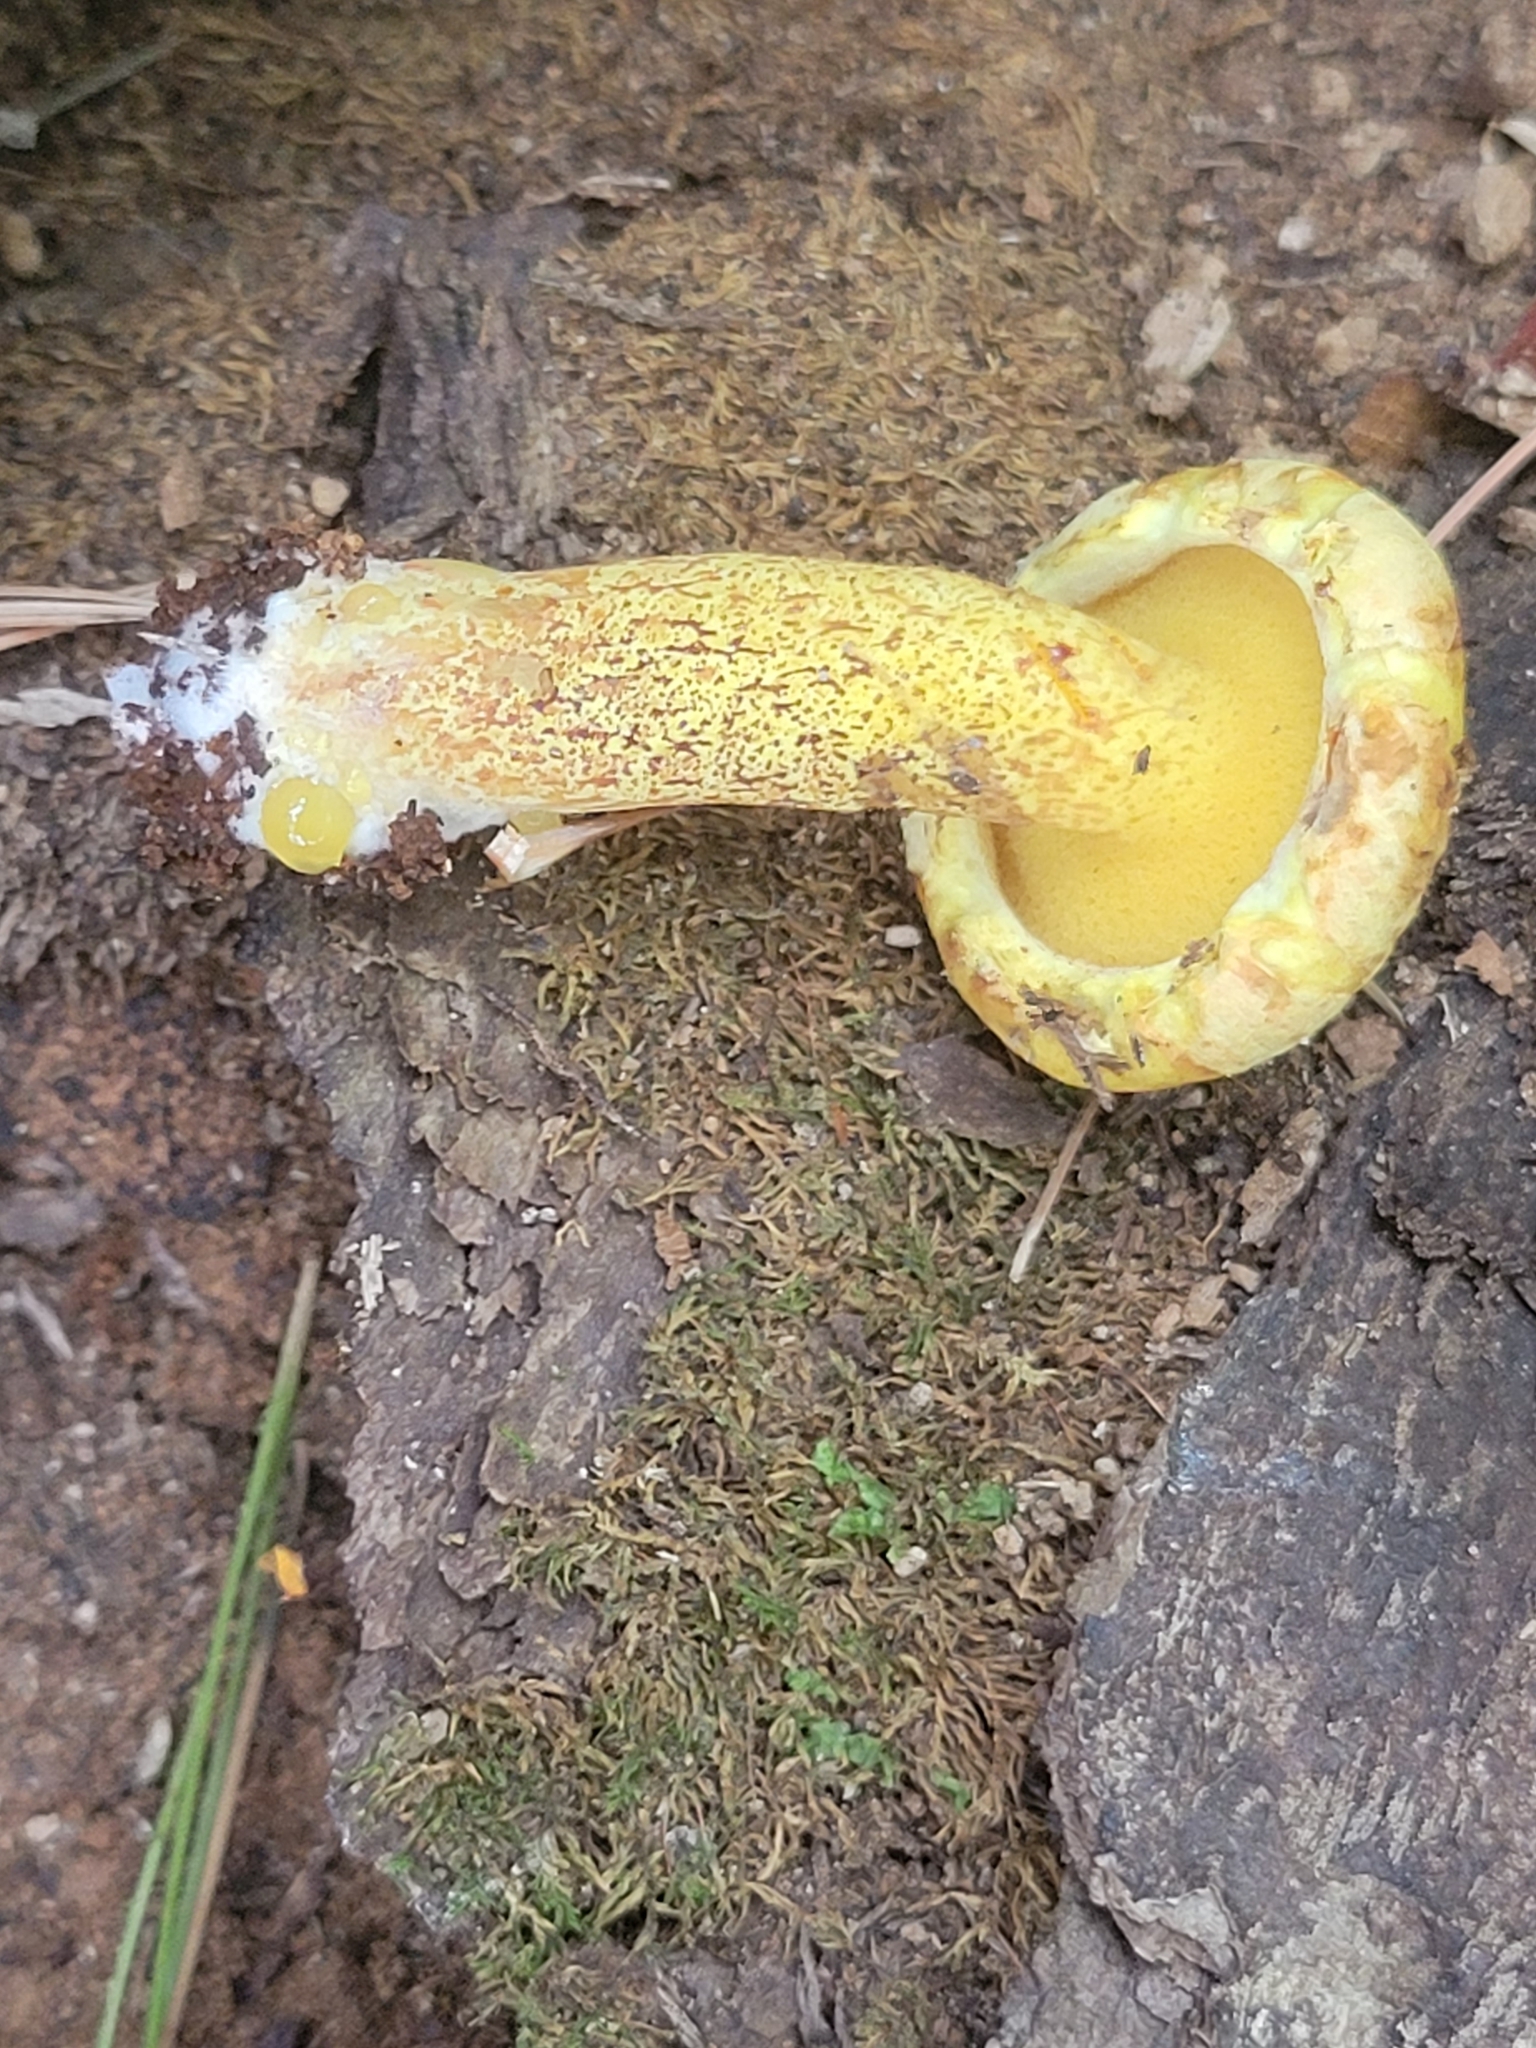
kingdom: Fungi
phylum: Basidiomycota
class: Agaricomycetes
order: Boletales
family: Suillaceae
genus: Suillus
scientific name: Suillus americanus
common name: Chicken fat mushroom
